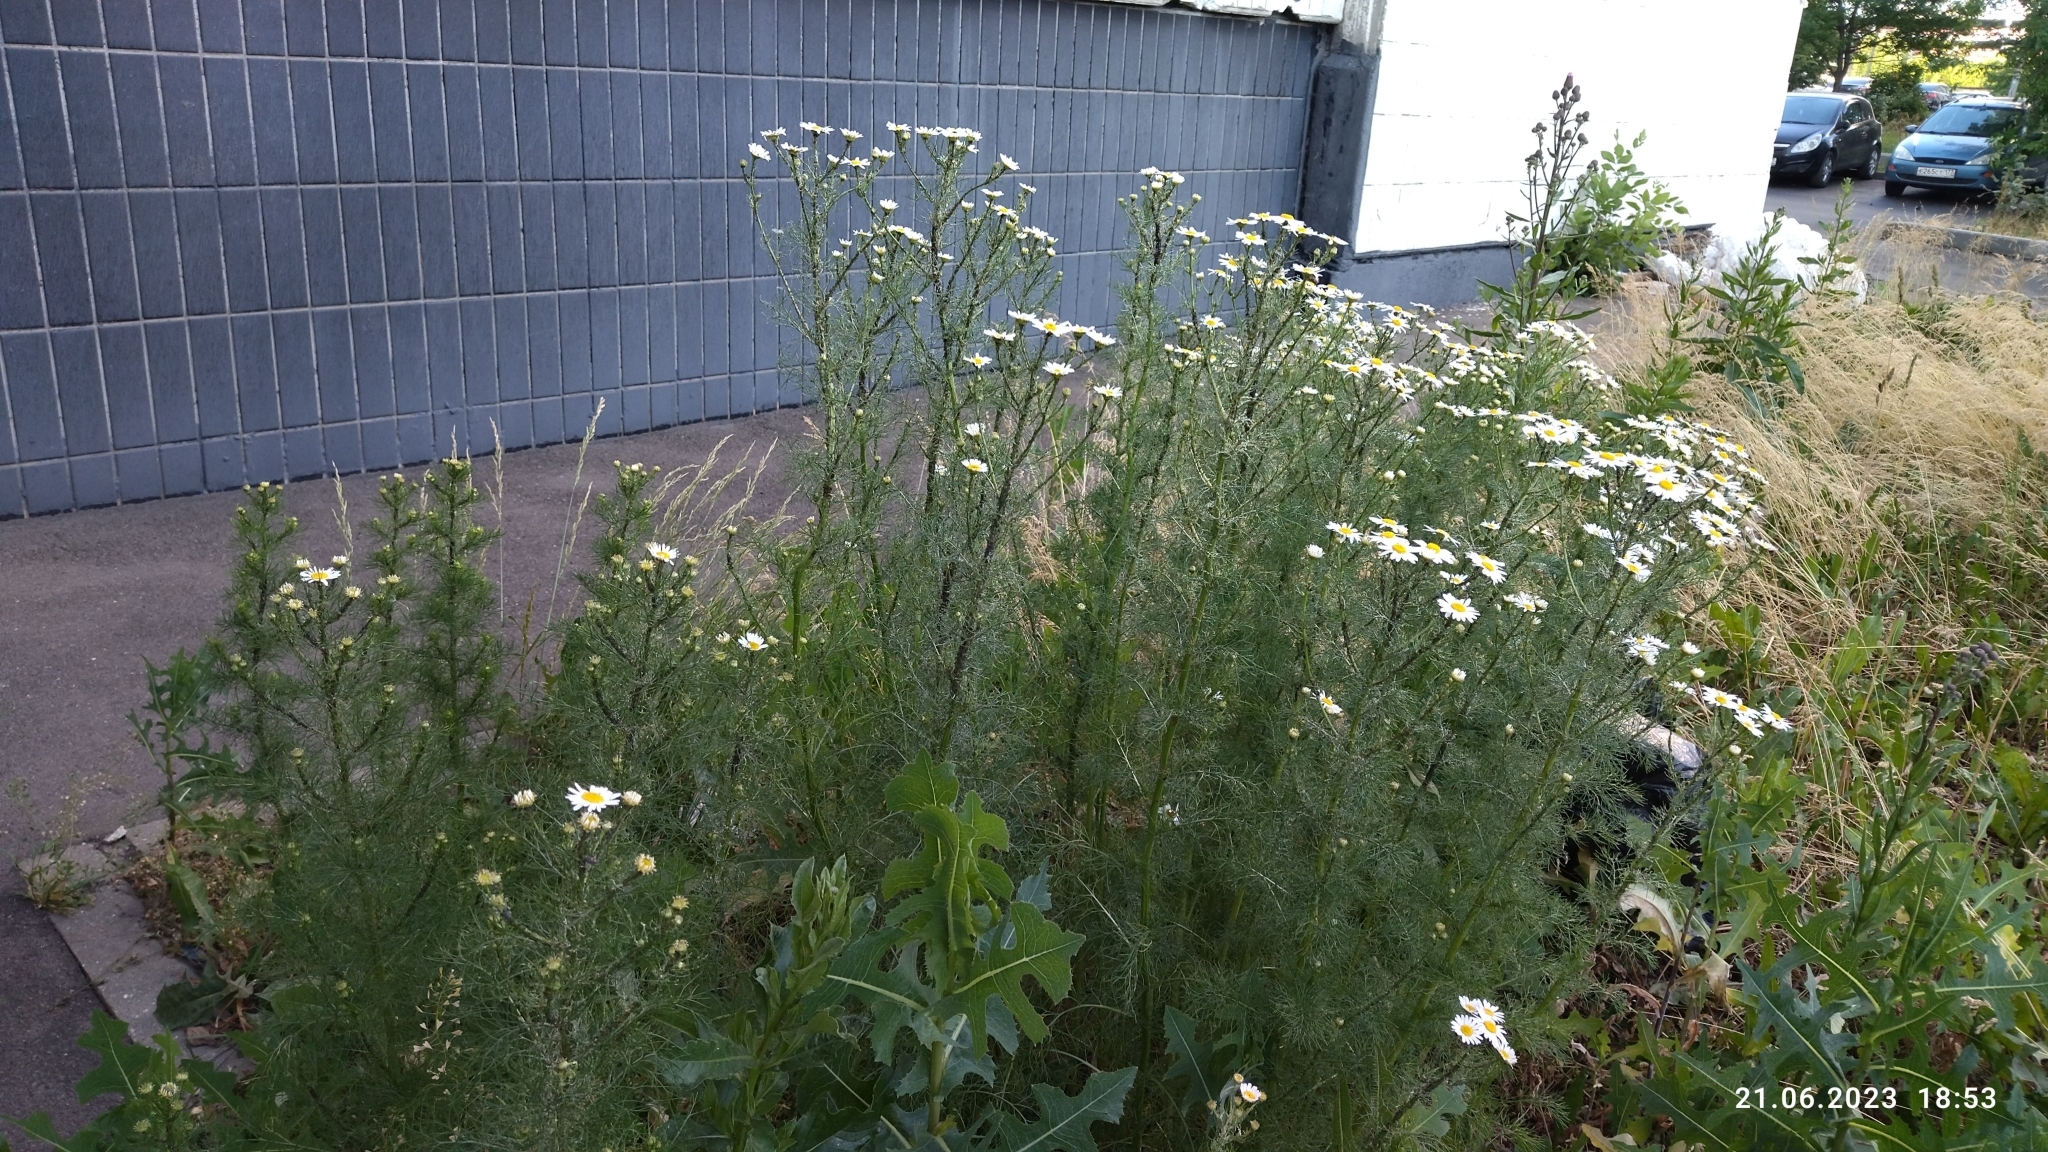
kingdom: Plantae
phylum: Tracheophyta
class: Magnoliopsida
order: Asterales
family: Asteraceae
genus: Tripleurospermum
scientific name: Tripleurospermum inodorum
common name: Scentless mayweed
